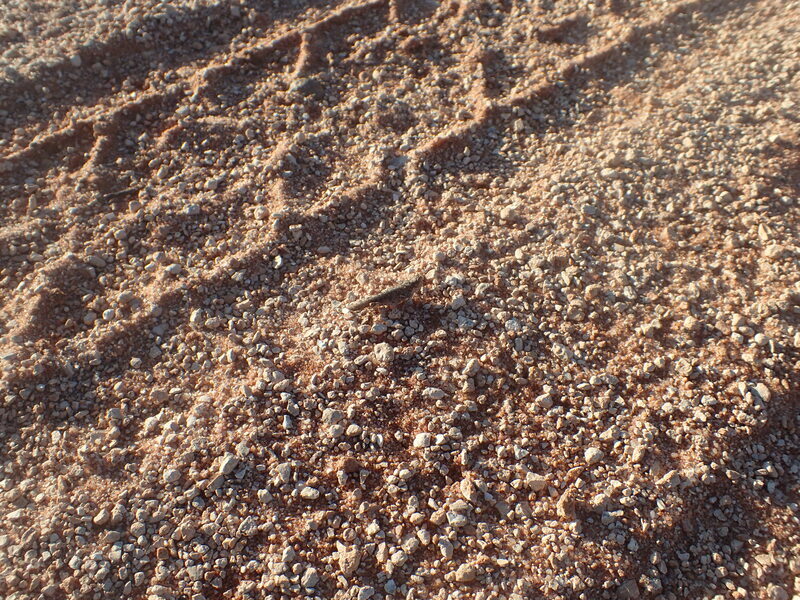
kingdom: Animalia
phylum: Arthropoda
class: Insecta
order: Orthoptera
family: Acrididae
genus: Pycnostictus
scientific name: Pycnostictus seriatus
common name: Common bandwing
